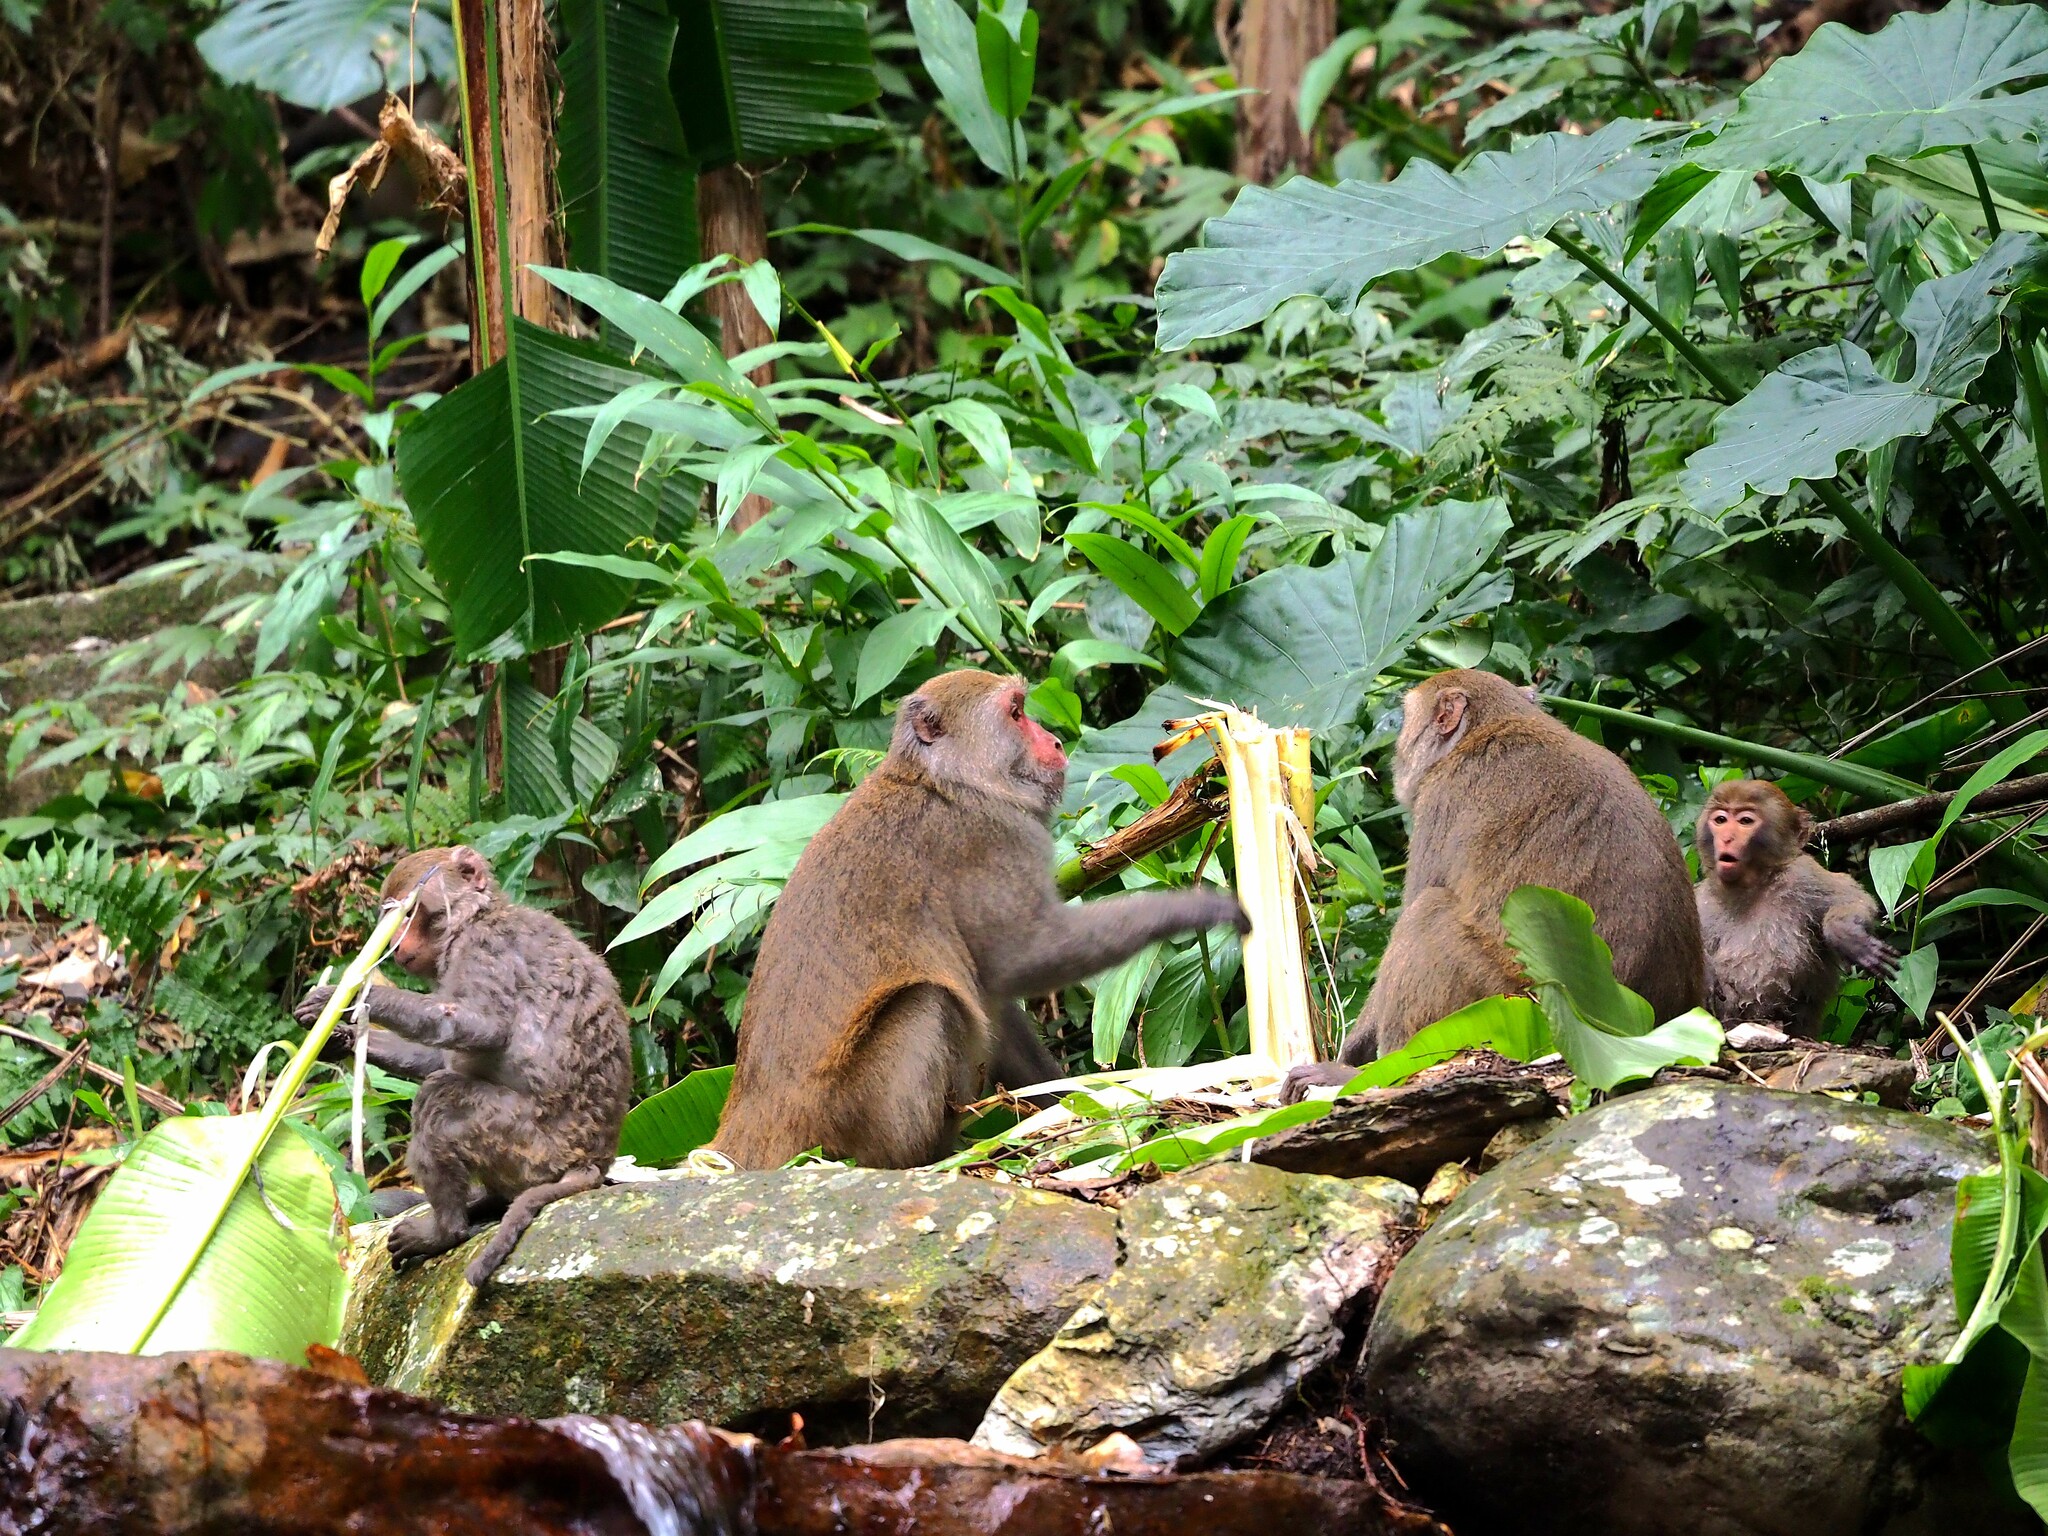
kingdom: Animalia
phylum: Chordata
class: Mammalia
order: Primates
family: Cercopithecidae
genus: Macaca
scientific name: Macaca cyclopis
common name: Formosan rock macaque
